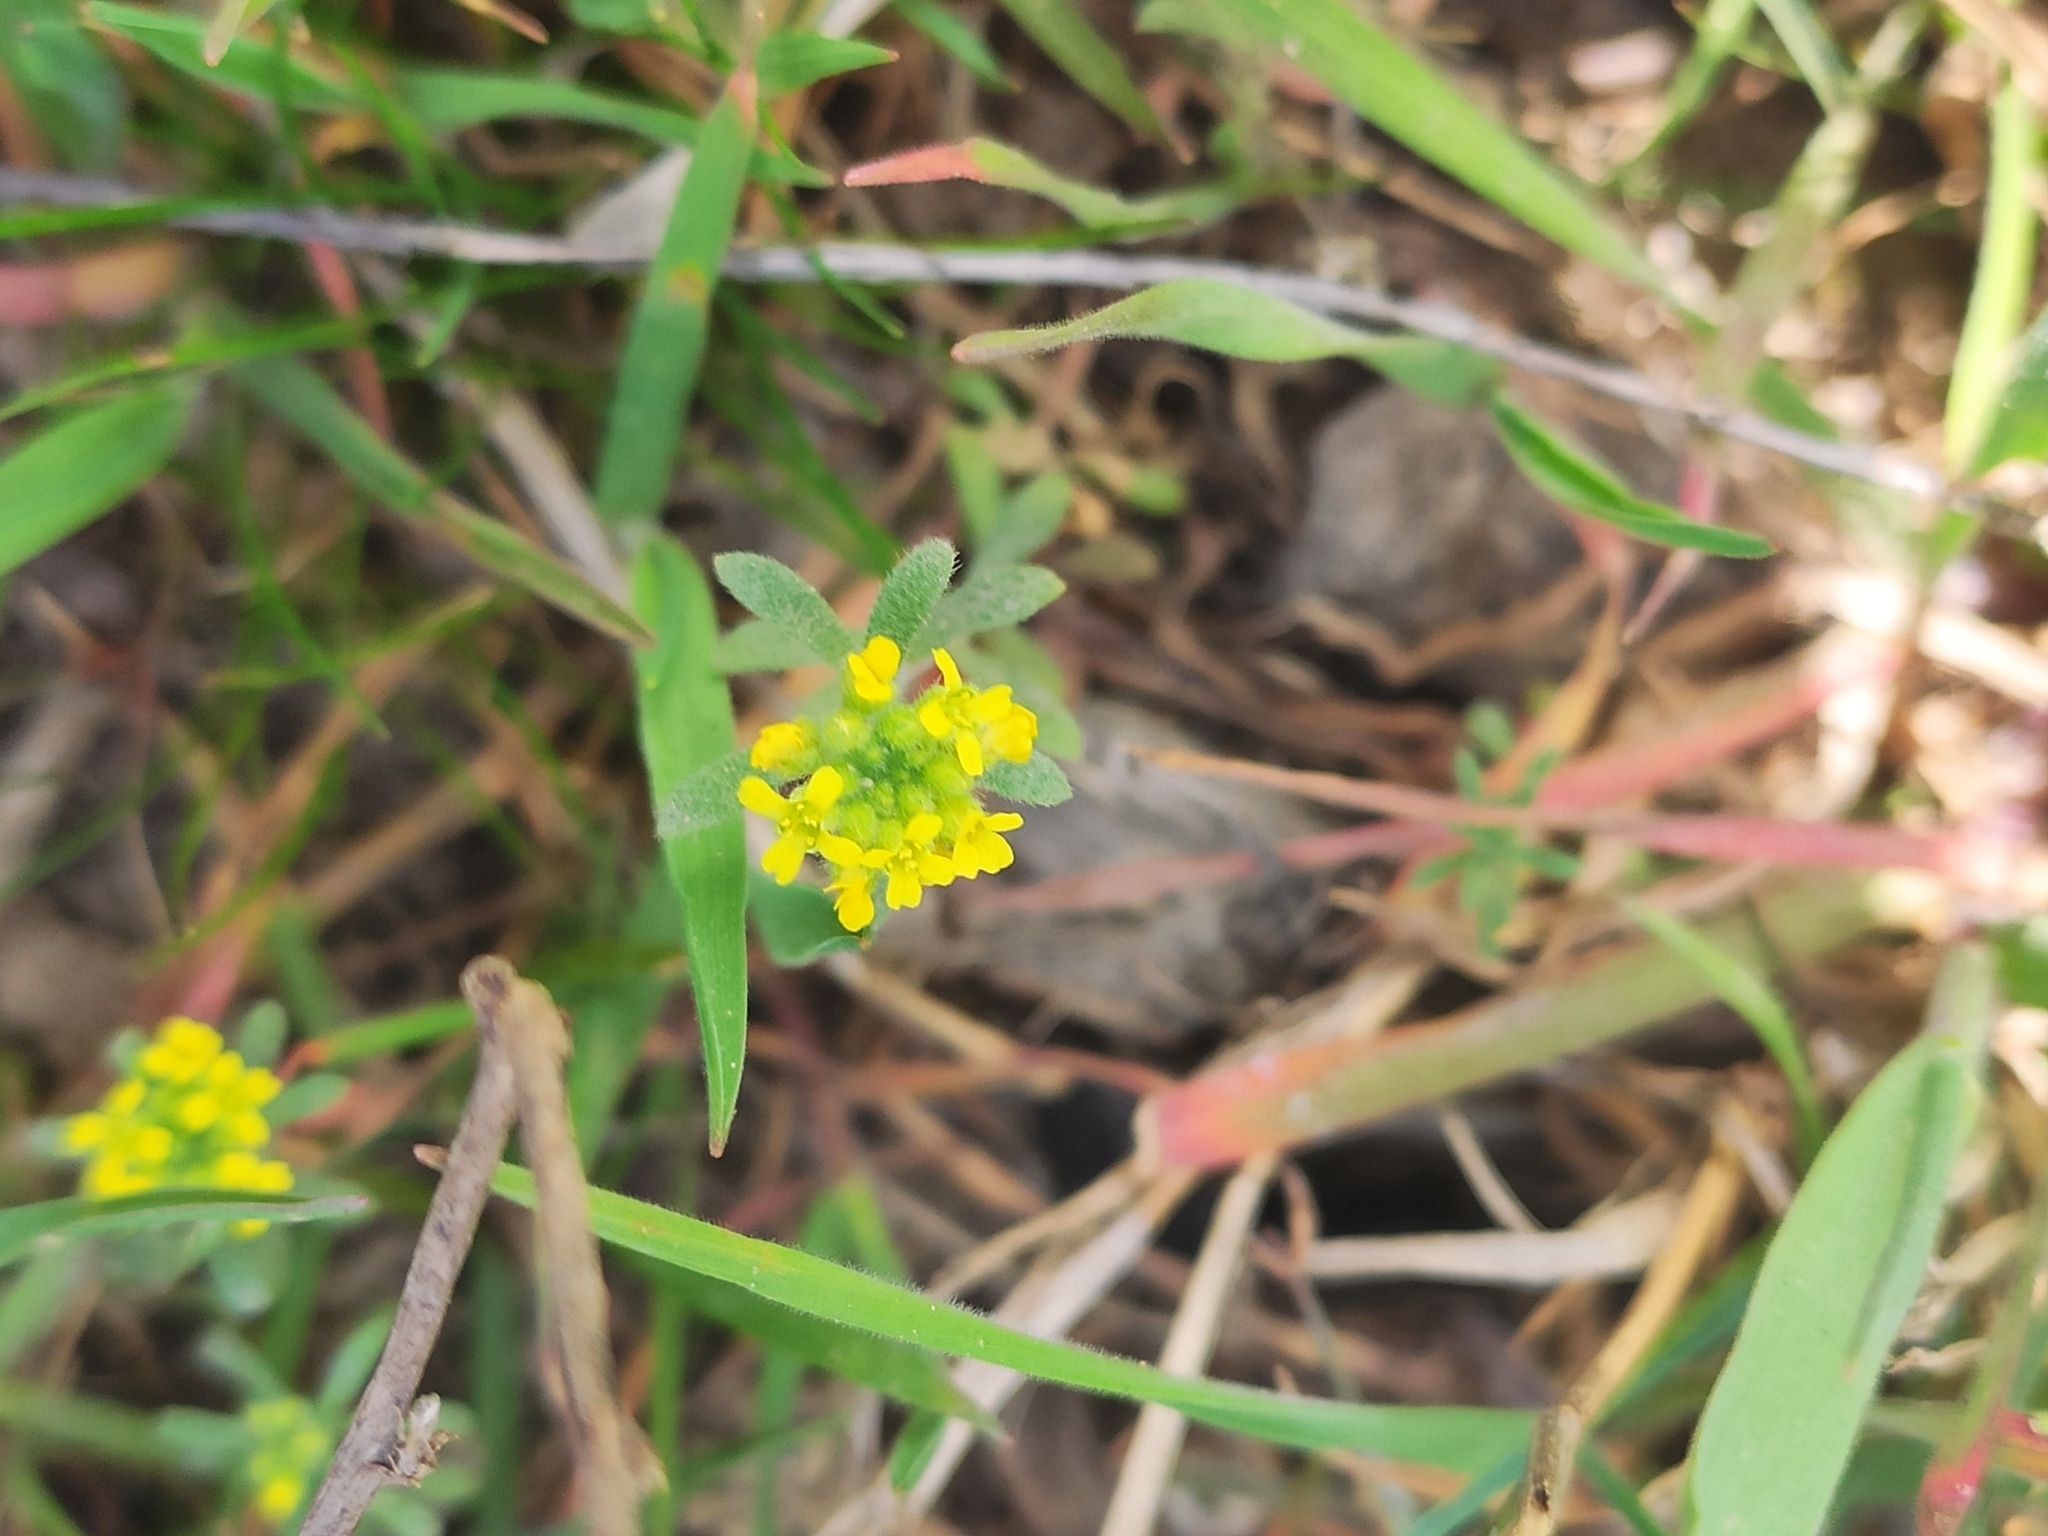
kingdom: Plantae
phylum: Tracheophyta
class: Magnoliopsida
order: Brassicales
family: Brassicaceae
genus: Alyssum
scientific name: Alyssum turkestanicum
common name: Desert alyssum
